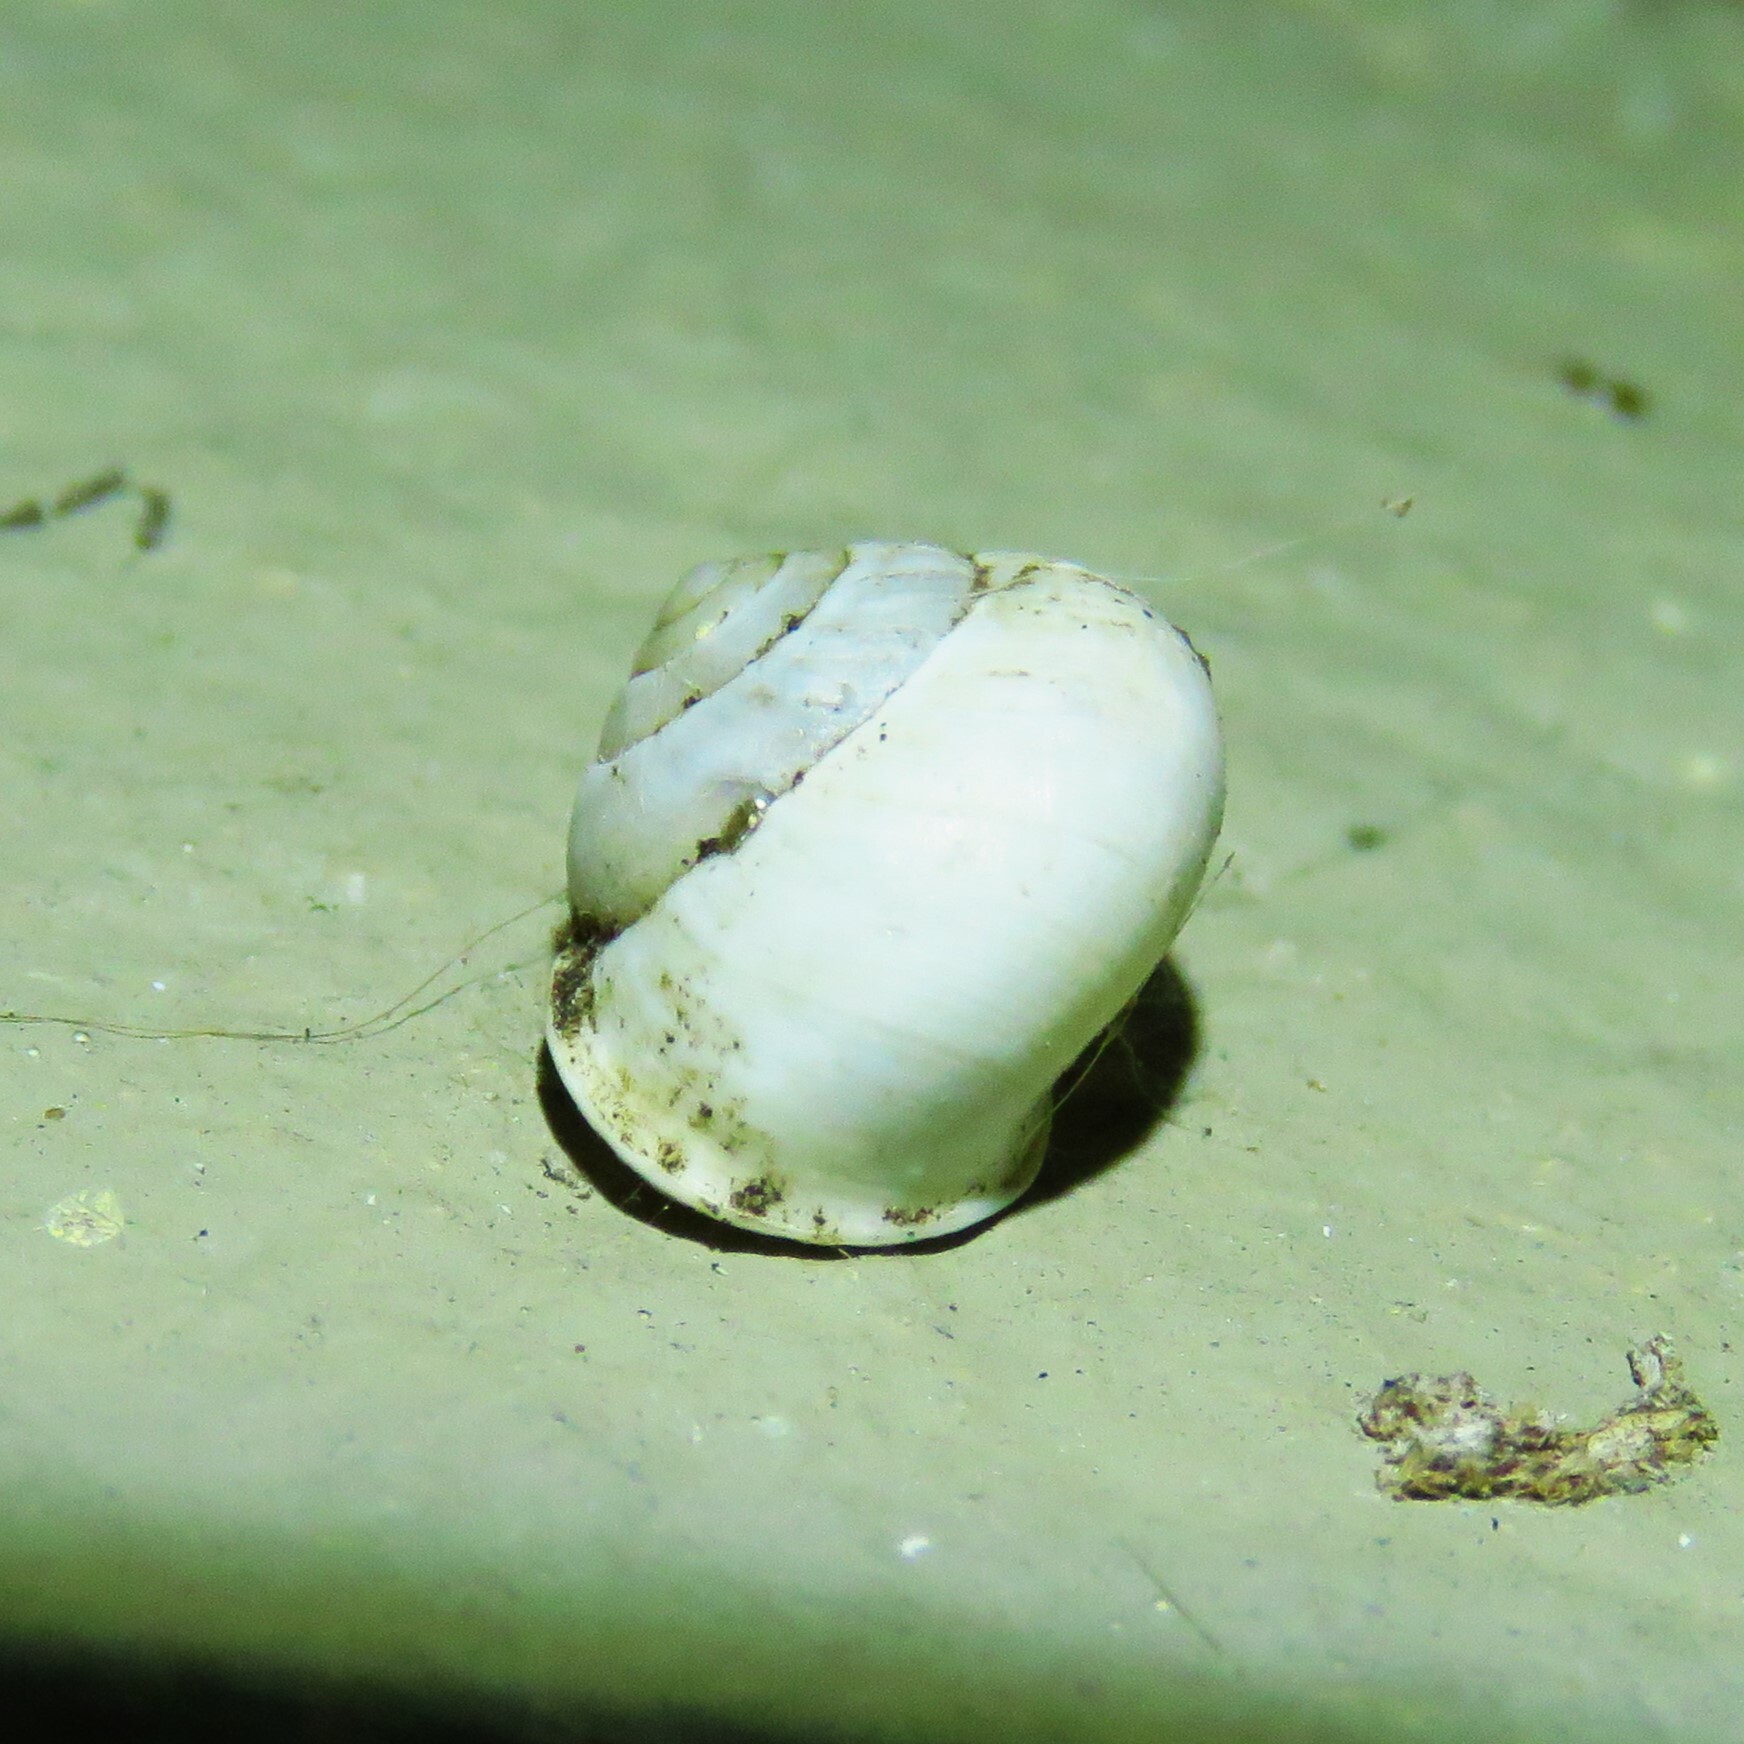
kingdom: Animalia
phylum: Mollusca
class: Gastropoda
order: Cycloneritida
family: Helicinidae
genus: Helicina
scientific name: Helicina orbiculata
